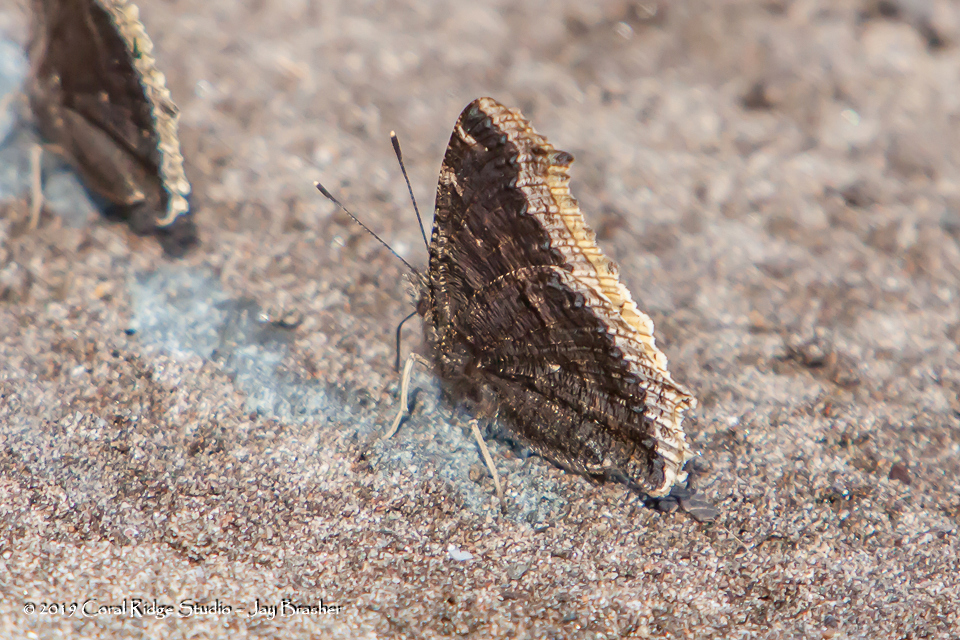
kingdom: Animalia
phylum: Arthropoda
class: Insecta
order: Lepidoptera
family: Nymphalidae
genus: Nymphalis
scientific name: Nymphalis antiopa
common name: Camberwell beauty
